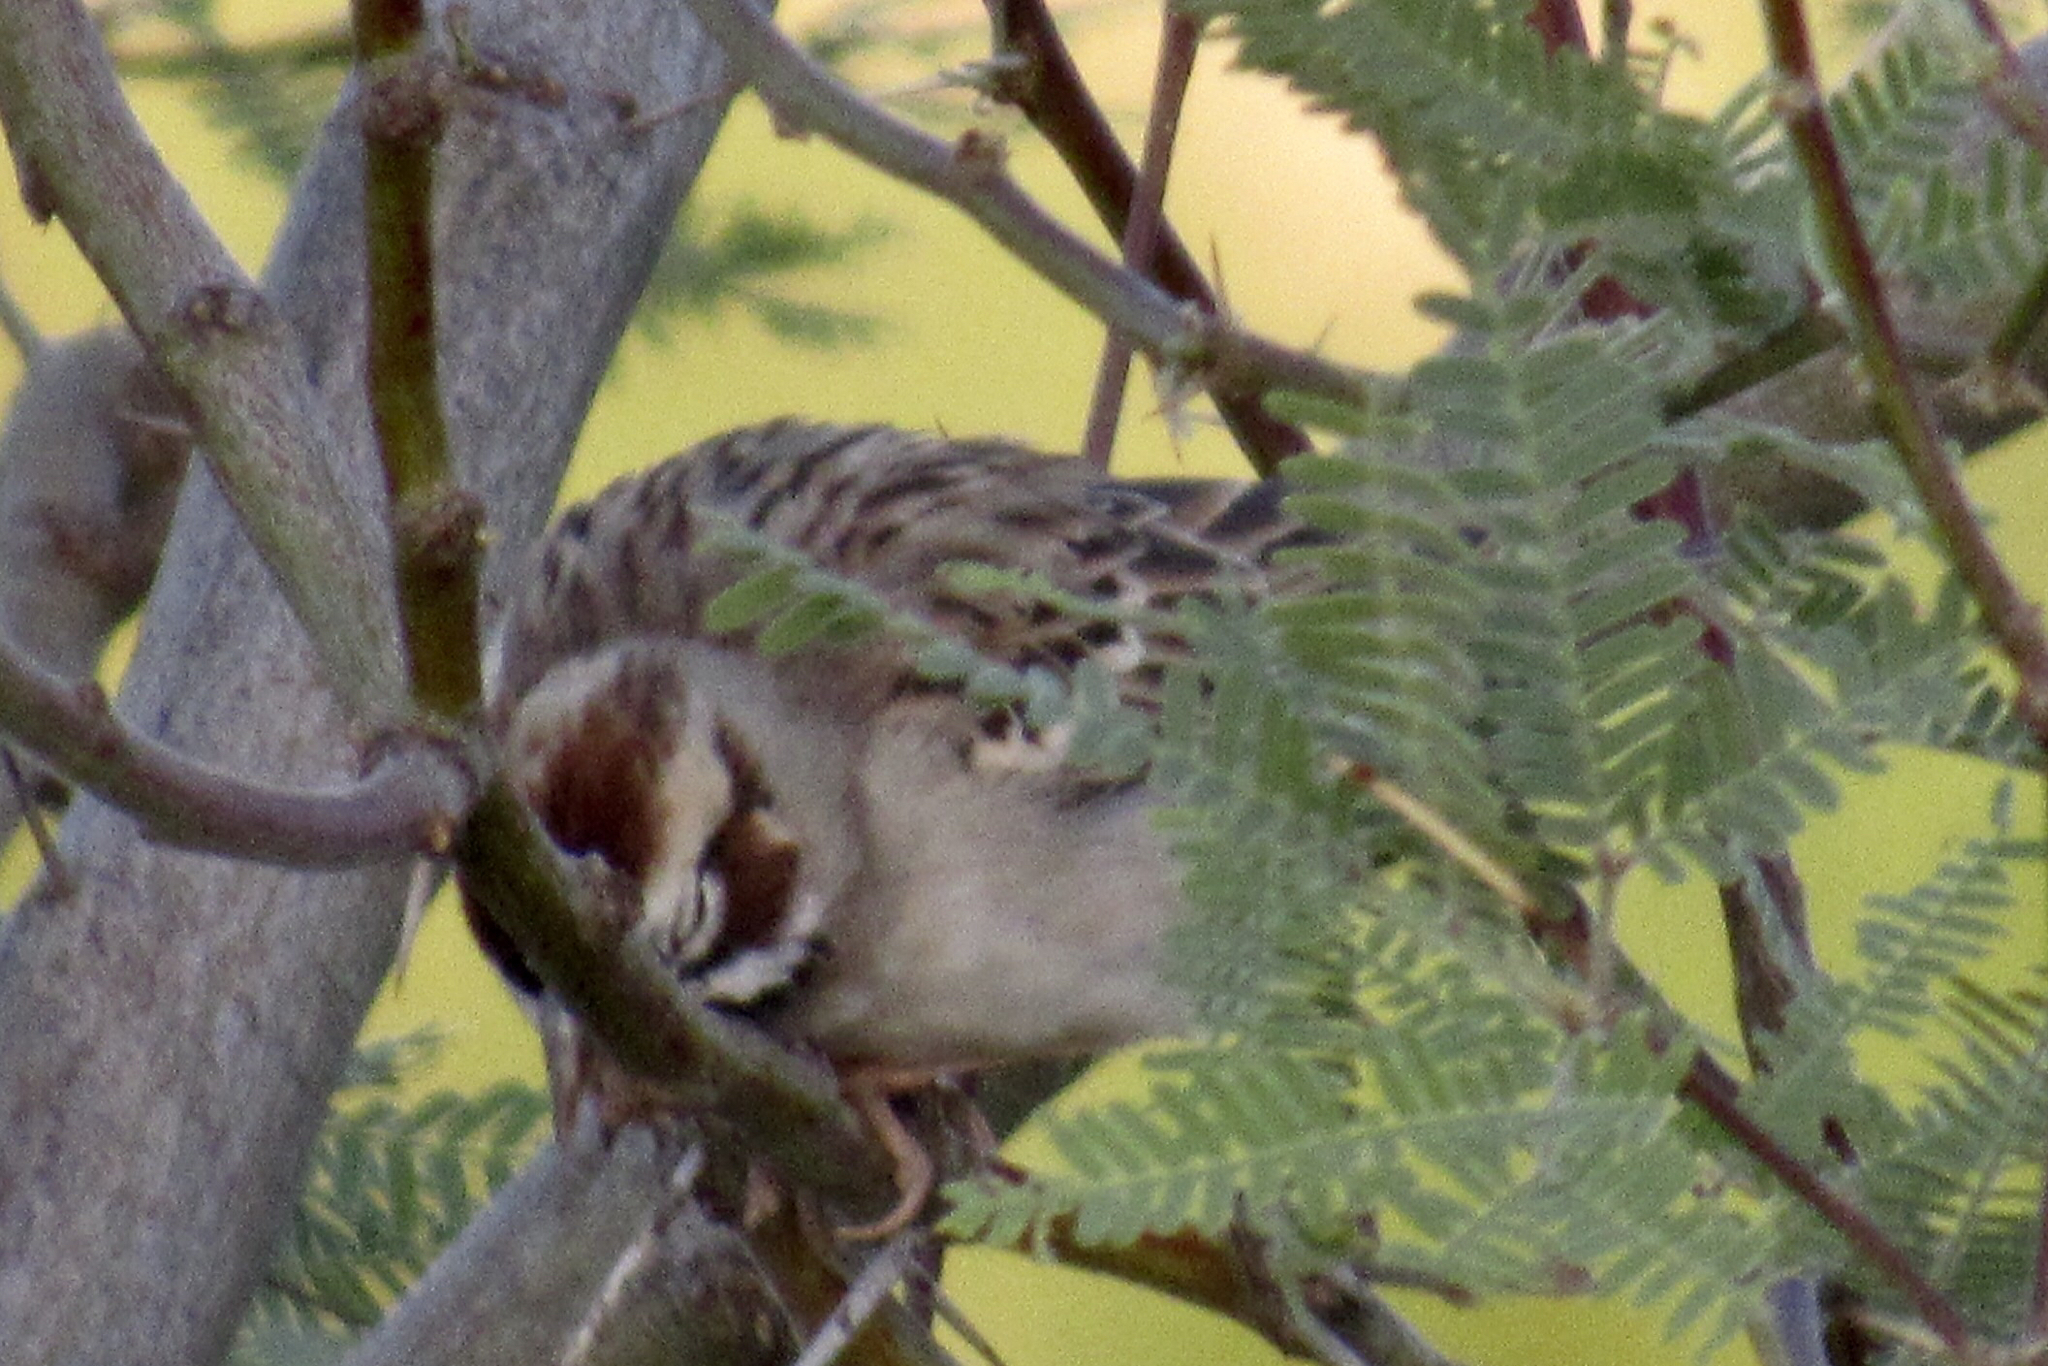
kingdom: Animalia
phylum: Chordata
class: Aves
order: Passeriformes
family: Passerellidae
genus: Chondestes
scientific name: Chondestes grammacus
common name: Lark sparrow
